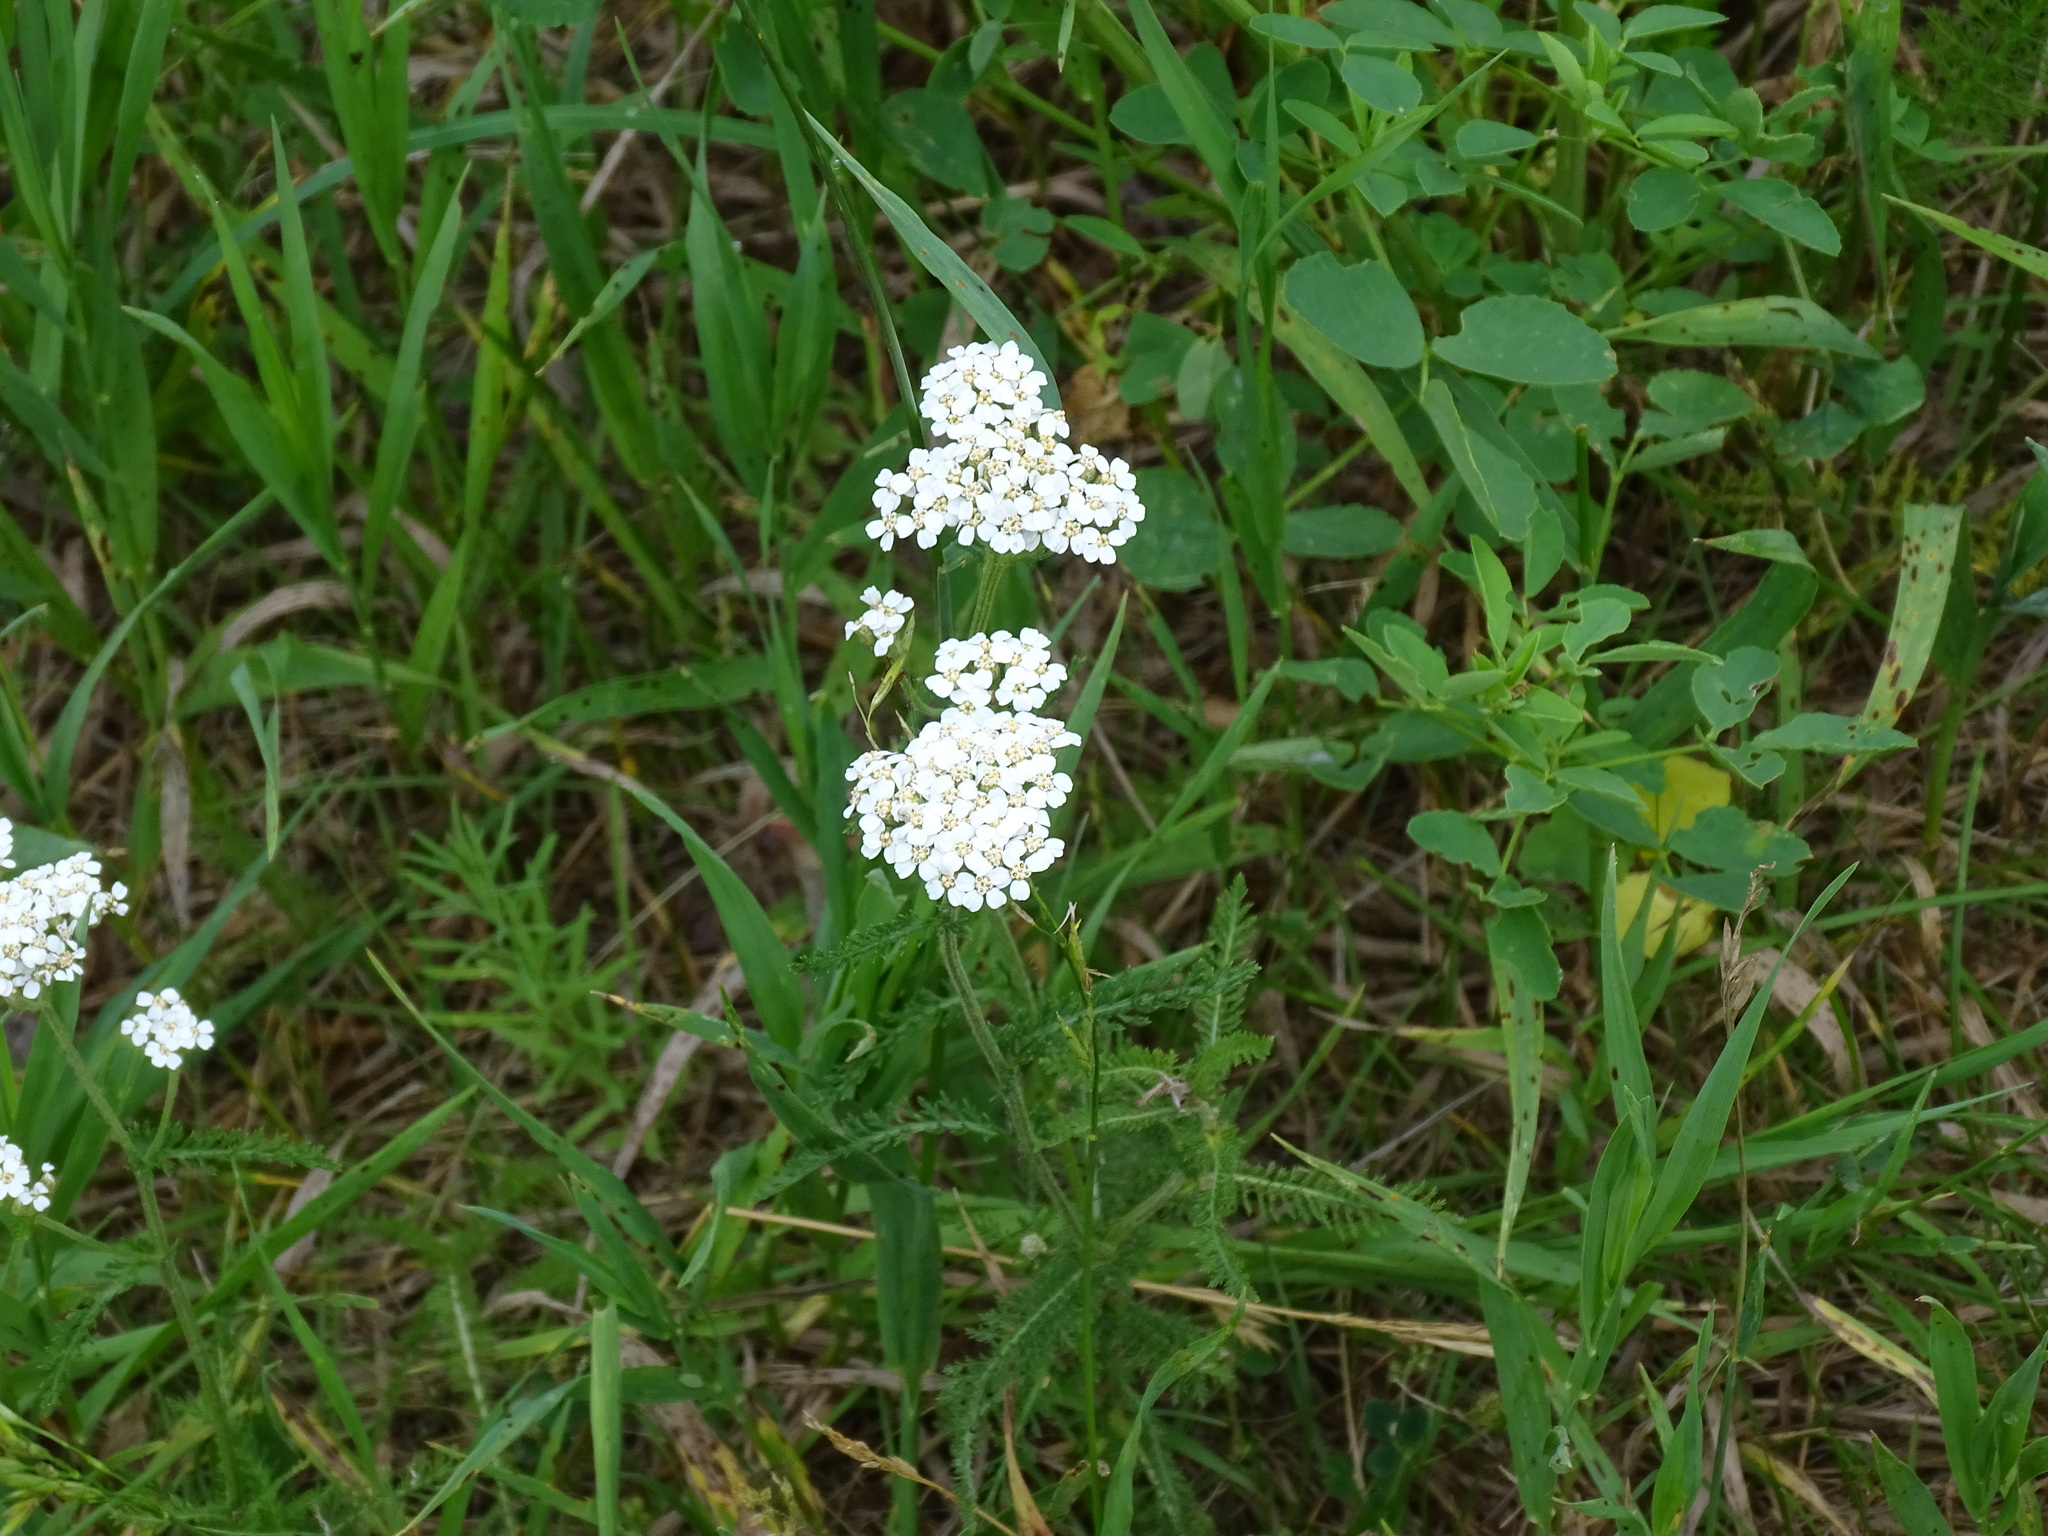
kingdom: Plantae
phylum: Tracheophyta
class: Magnoliopsida
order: Asterales
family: Asteraceae
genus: Achillea
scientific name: Achillea millefolium
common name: Yarrow
